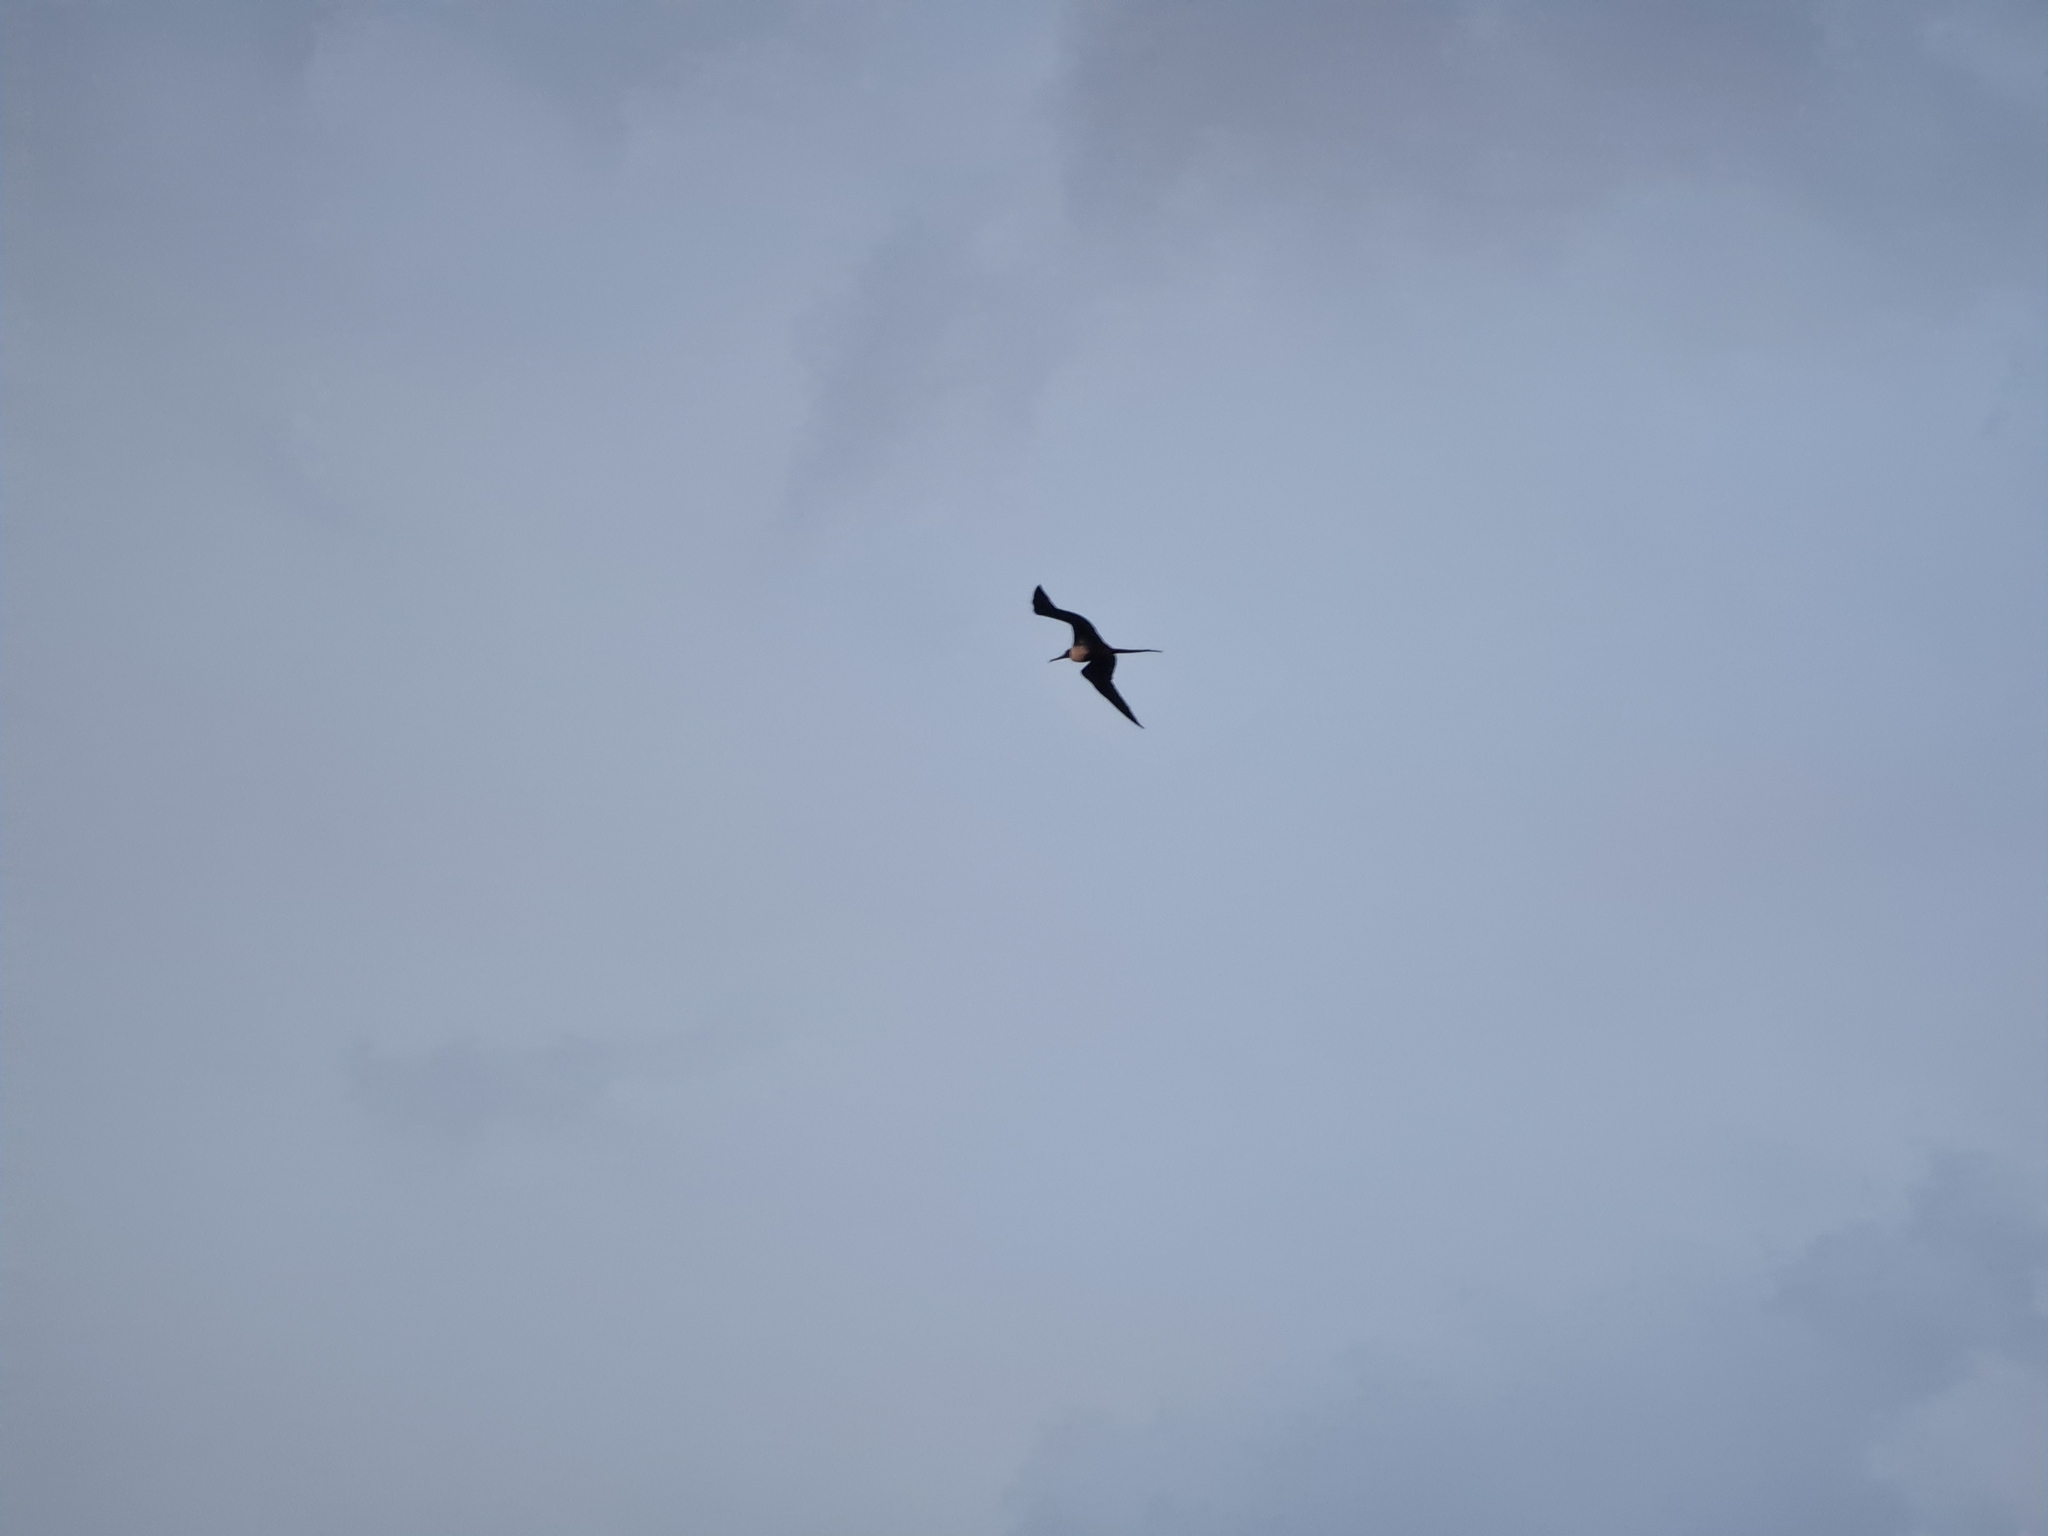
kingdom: Animalia
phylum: Chordata
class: Aves
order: Suliformes
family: Fregatidae
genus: Fregata
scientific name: Fregata magnificens
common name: Magnificent frigatebird
